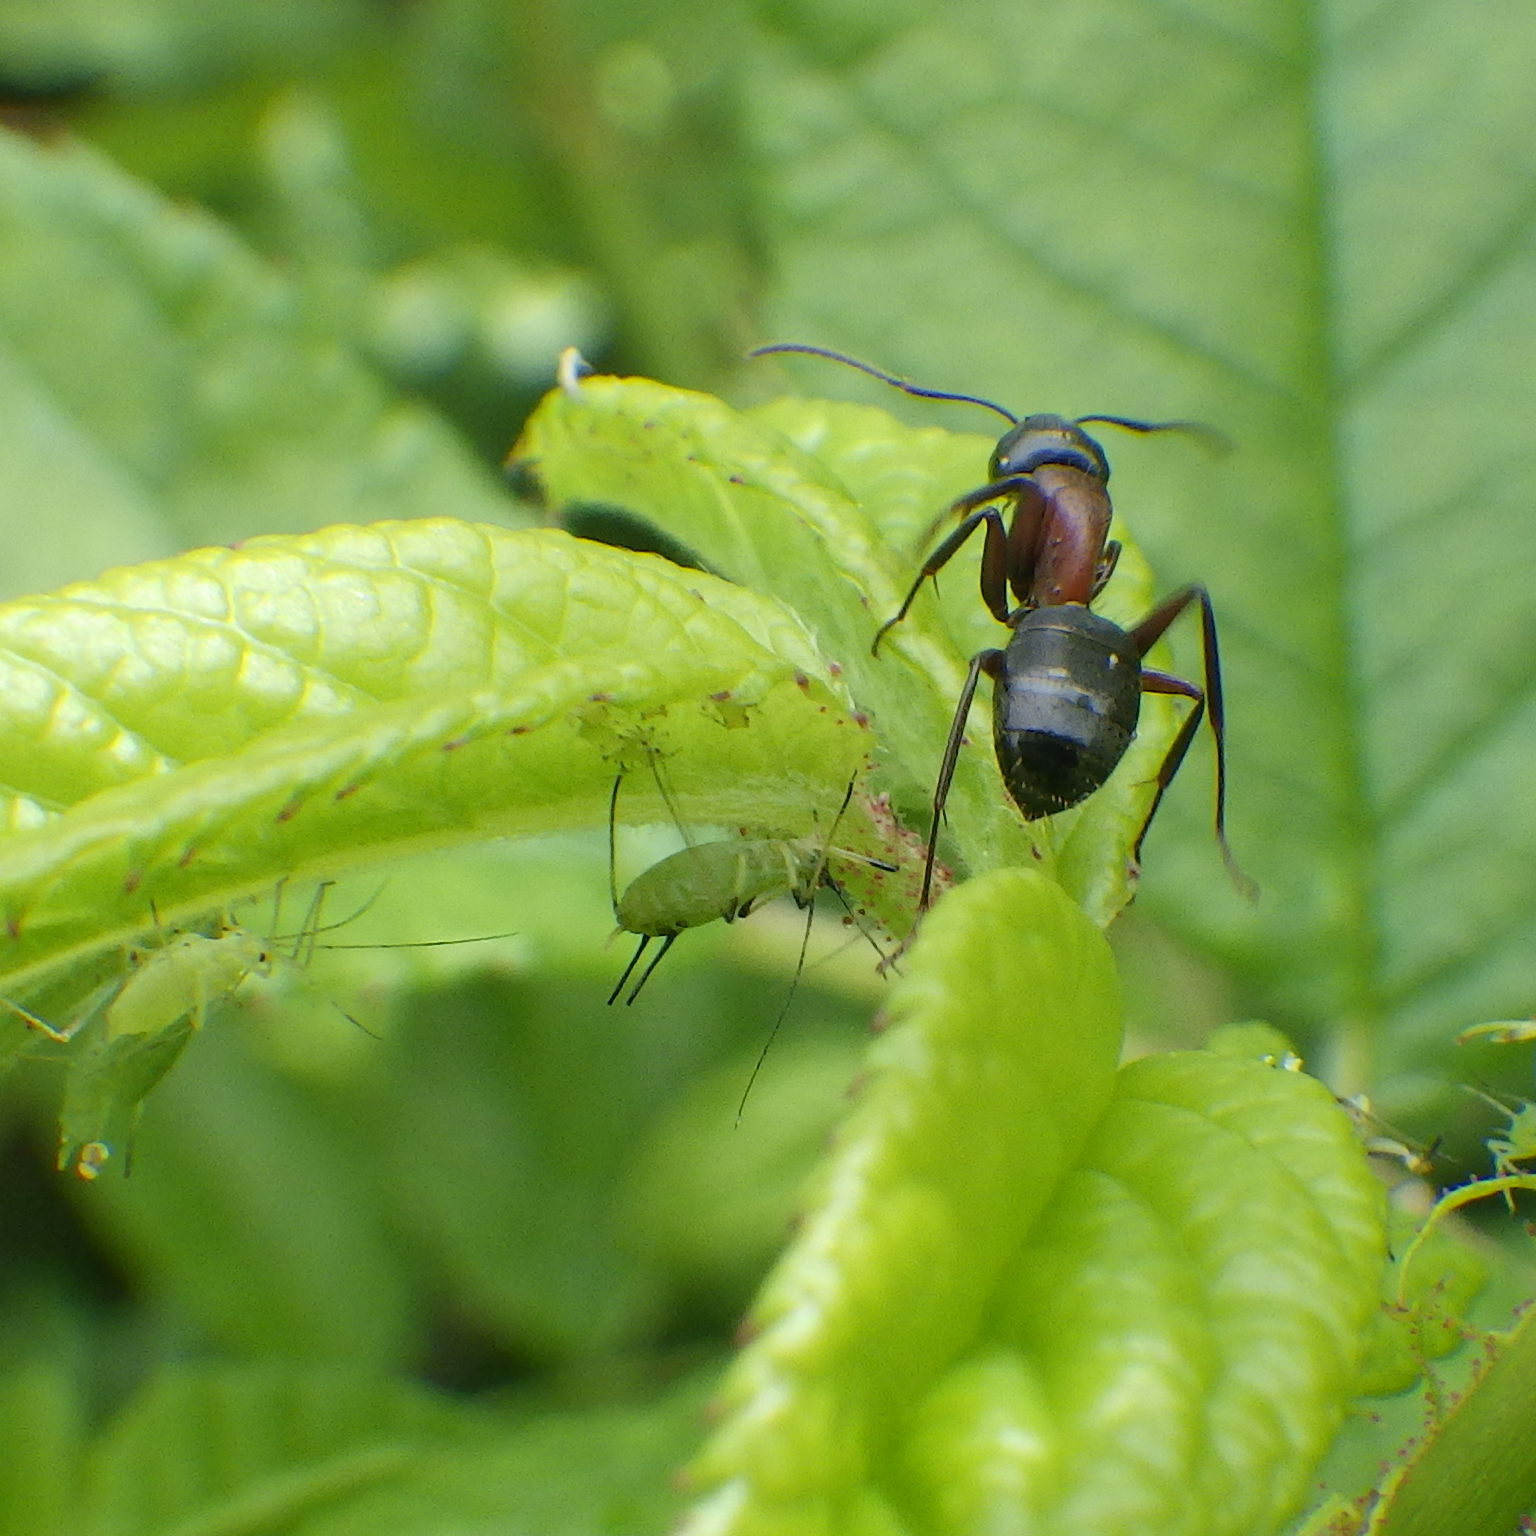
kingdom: Animalia
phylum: Arthropoda
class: Insecta
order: Hymenoptera
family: Formicidae
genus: Camponotus
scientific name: Camponotus novaeboracensis
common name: New york carpenter ant
